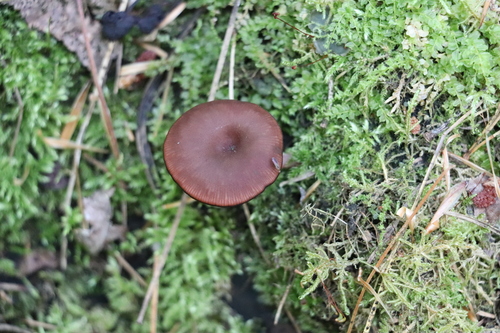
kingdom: Fungi
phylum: Basidiomycota
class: Agaricomycetes
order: Agaricales
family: Hygrophoraceae
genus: Arrhenia
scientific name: Arrhenia discorosea
